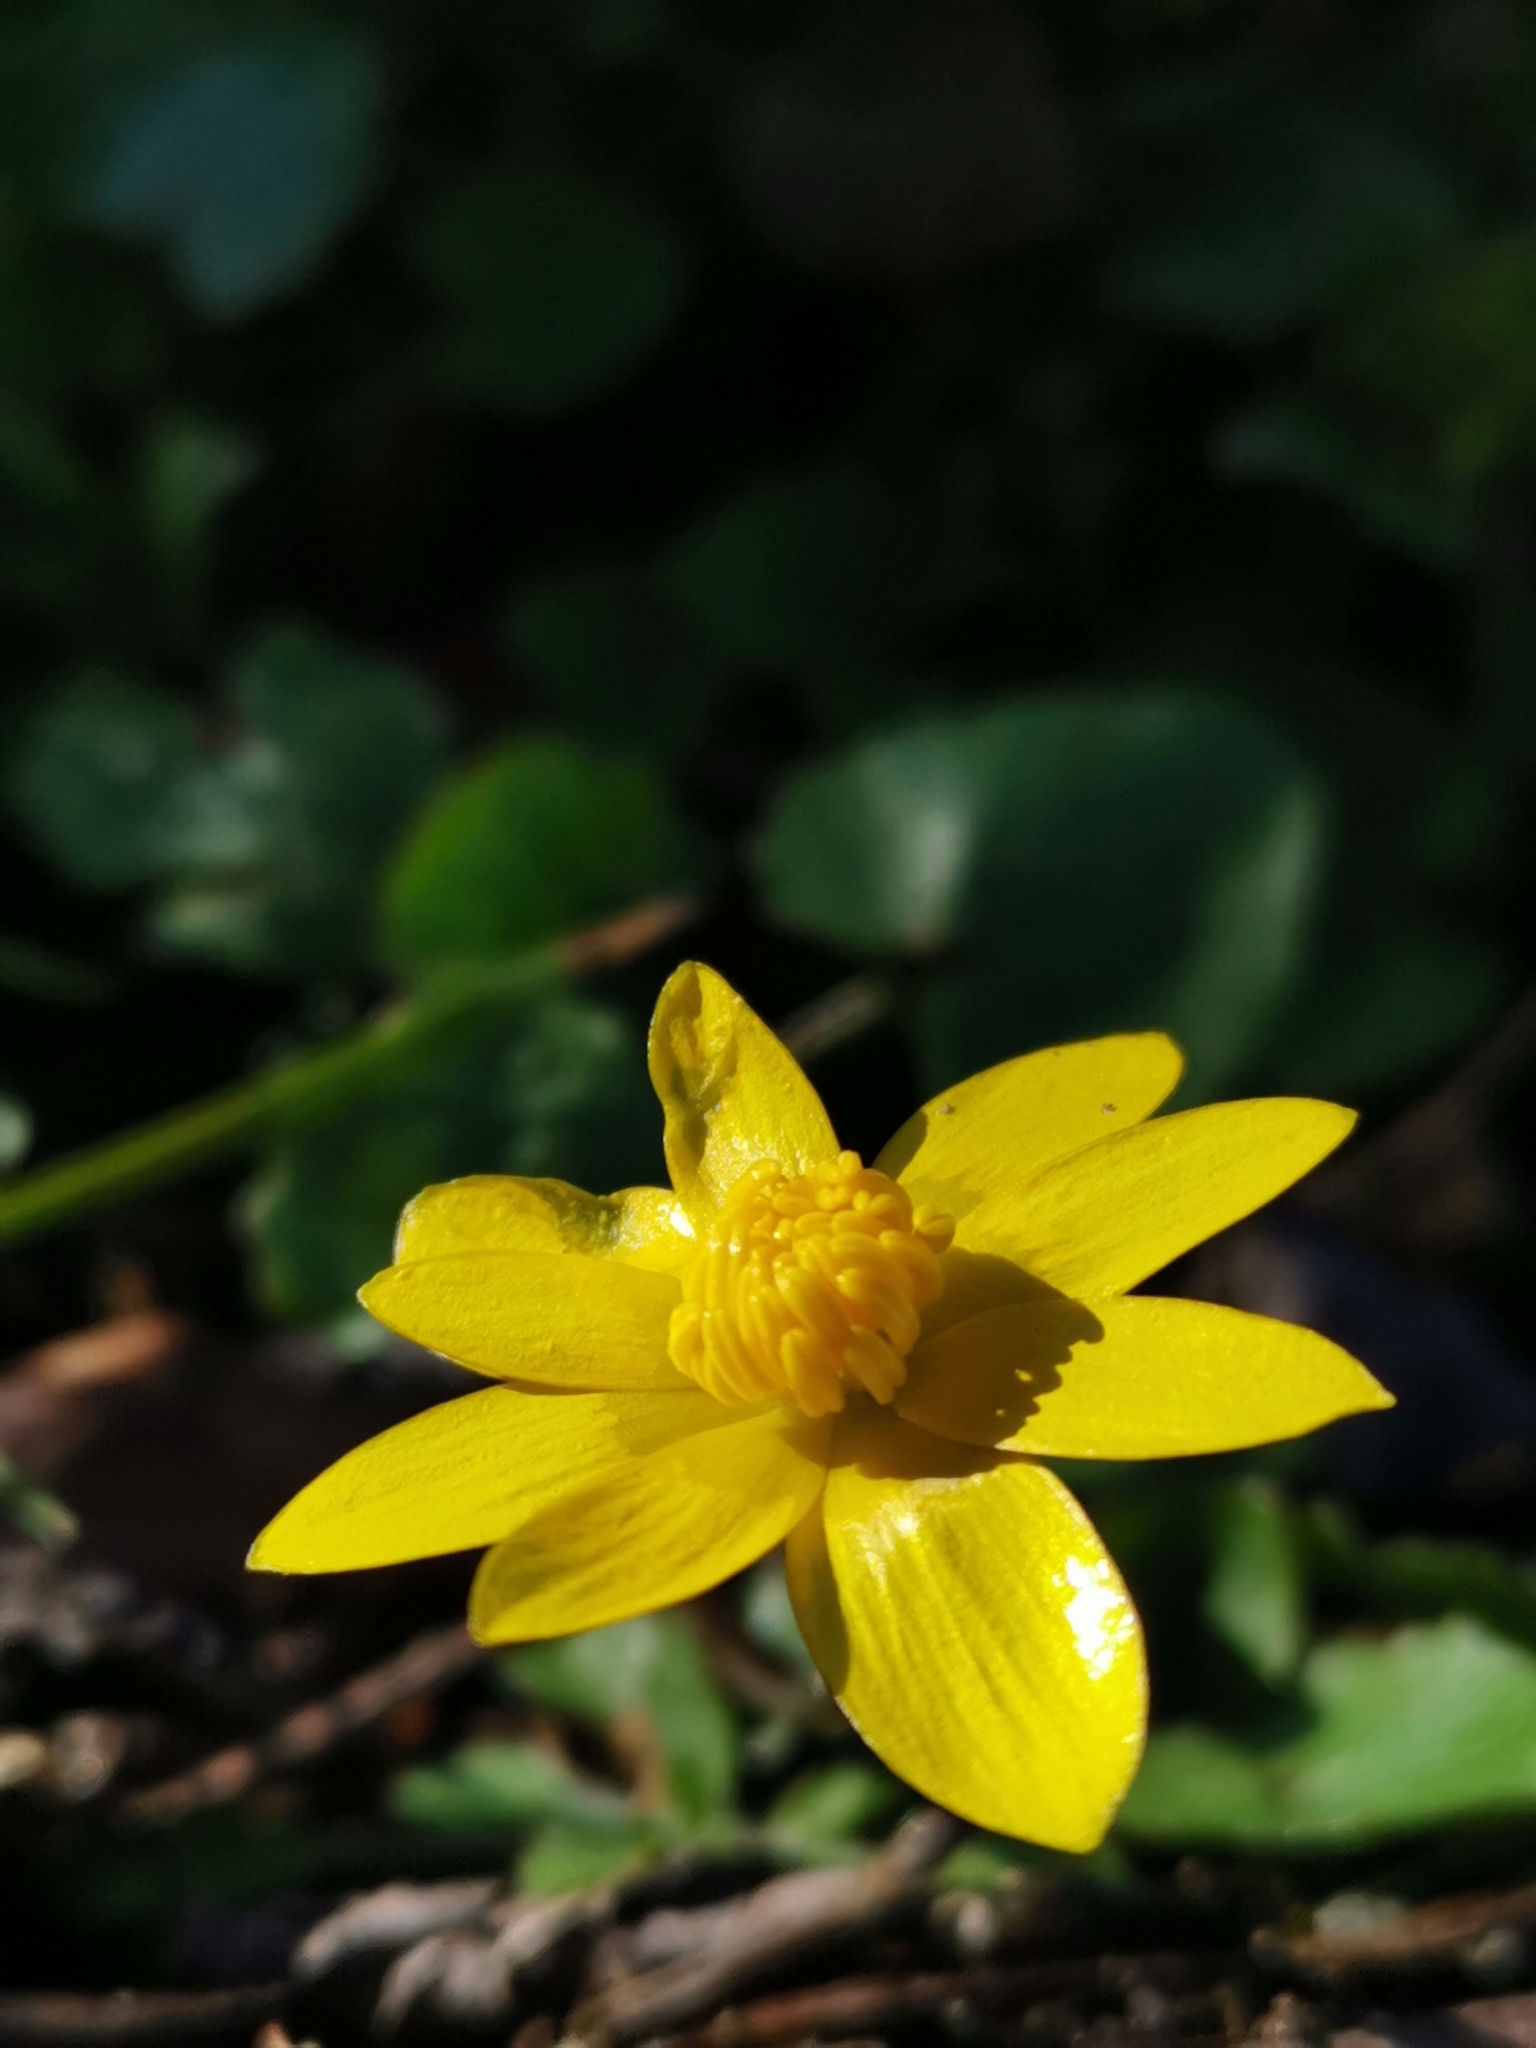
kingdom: Plantae
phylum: Tracheophyta
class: Magnoliopsida
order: Ranunculales
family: Ranunculaceae
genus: Ficaria
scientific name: Ficaria verna
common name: Lesser celandine
